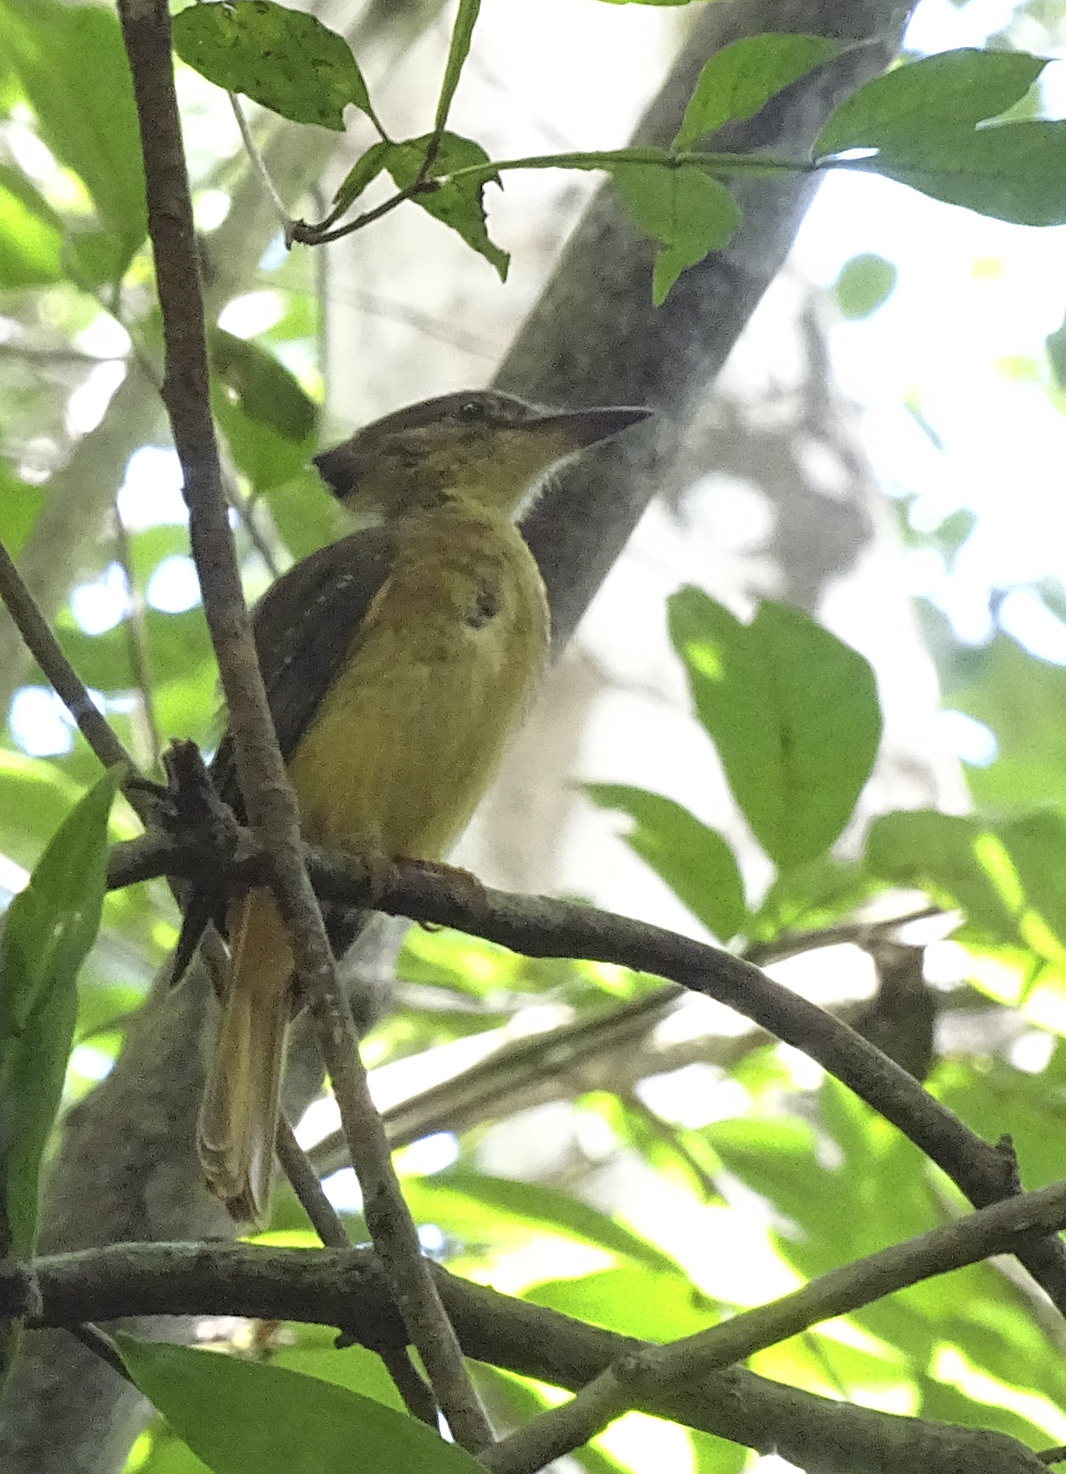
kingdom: Animalia
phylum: Chordata
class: Aves
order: Passeriformes
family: Tyrannidae
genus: Onychorhynchus
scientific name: Onychorhynchus coronatus
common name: Royal flycatcher
